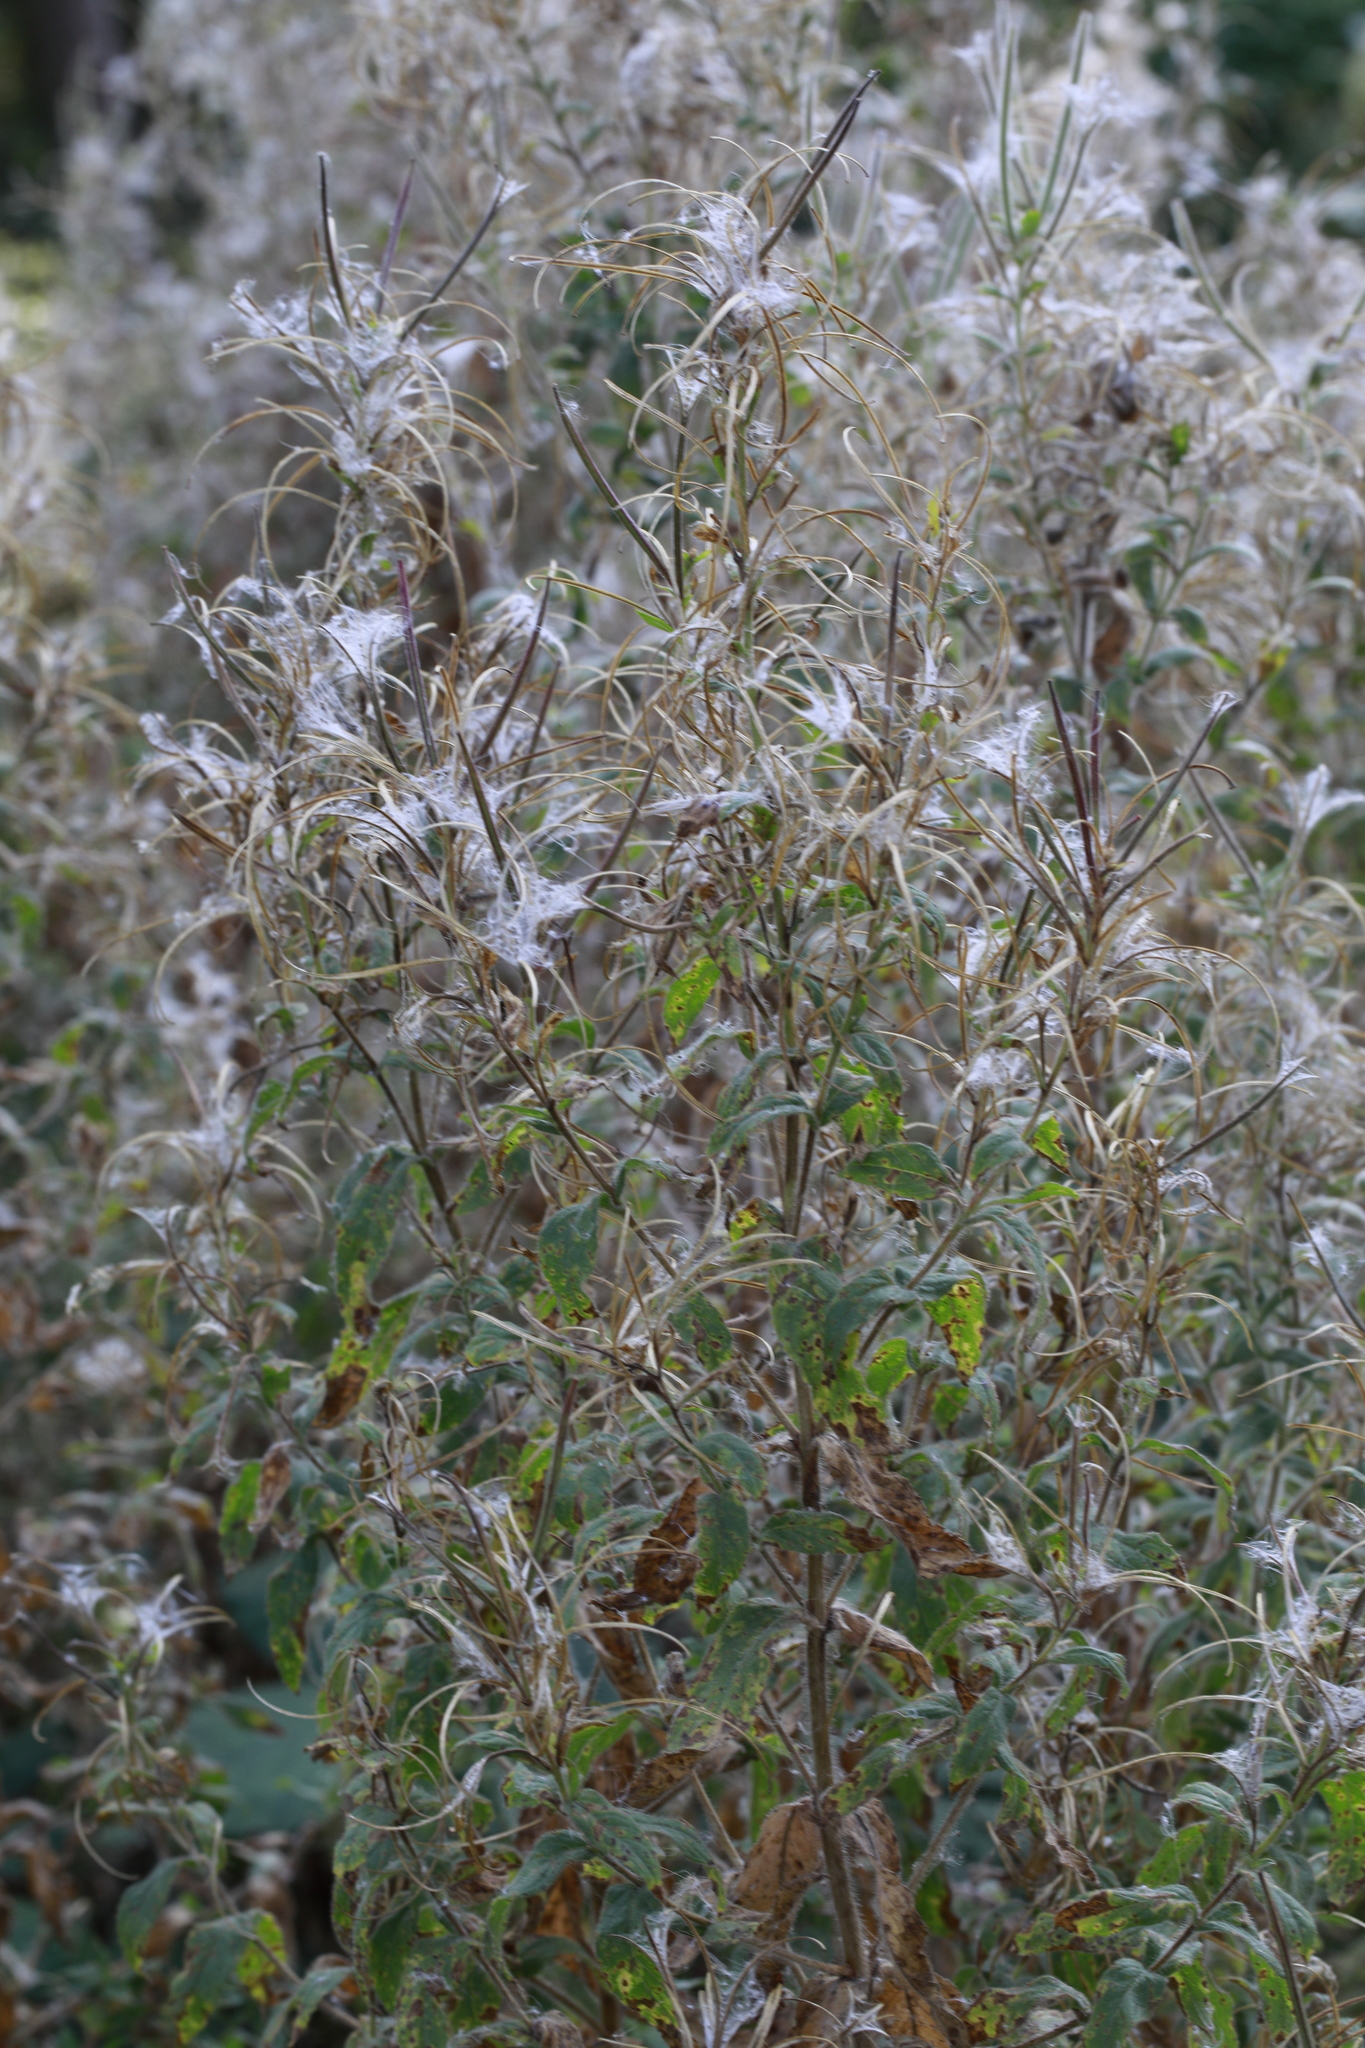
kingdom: Plantae
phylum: Tracheophyta
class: Magnoliopsida
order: Myrtales
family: Onagraceae
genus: Epilobium
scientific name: Epilobium hirsutum
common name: Great willowherb
